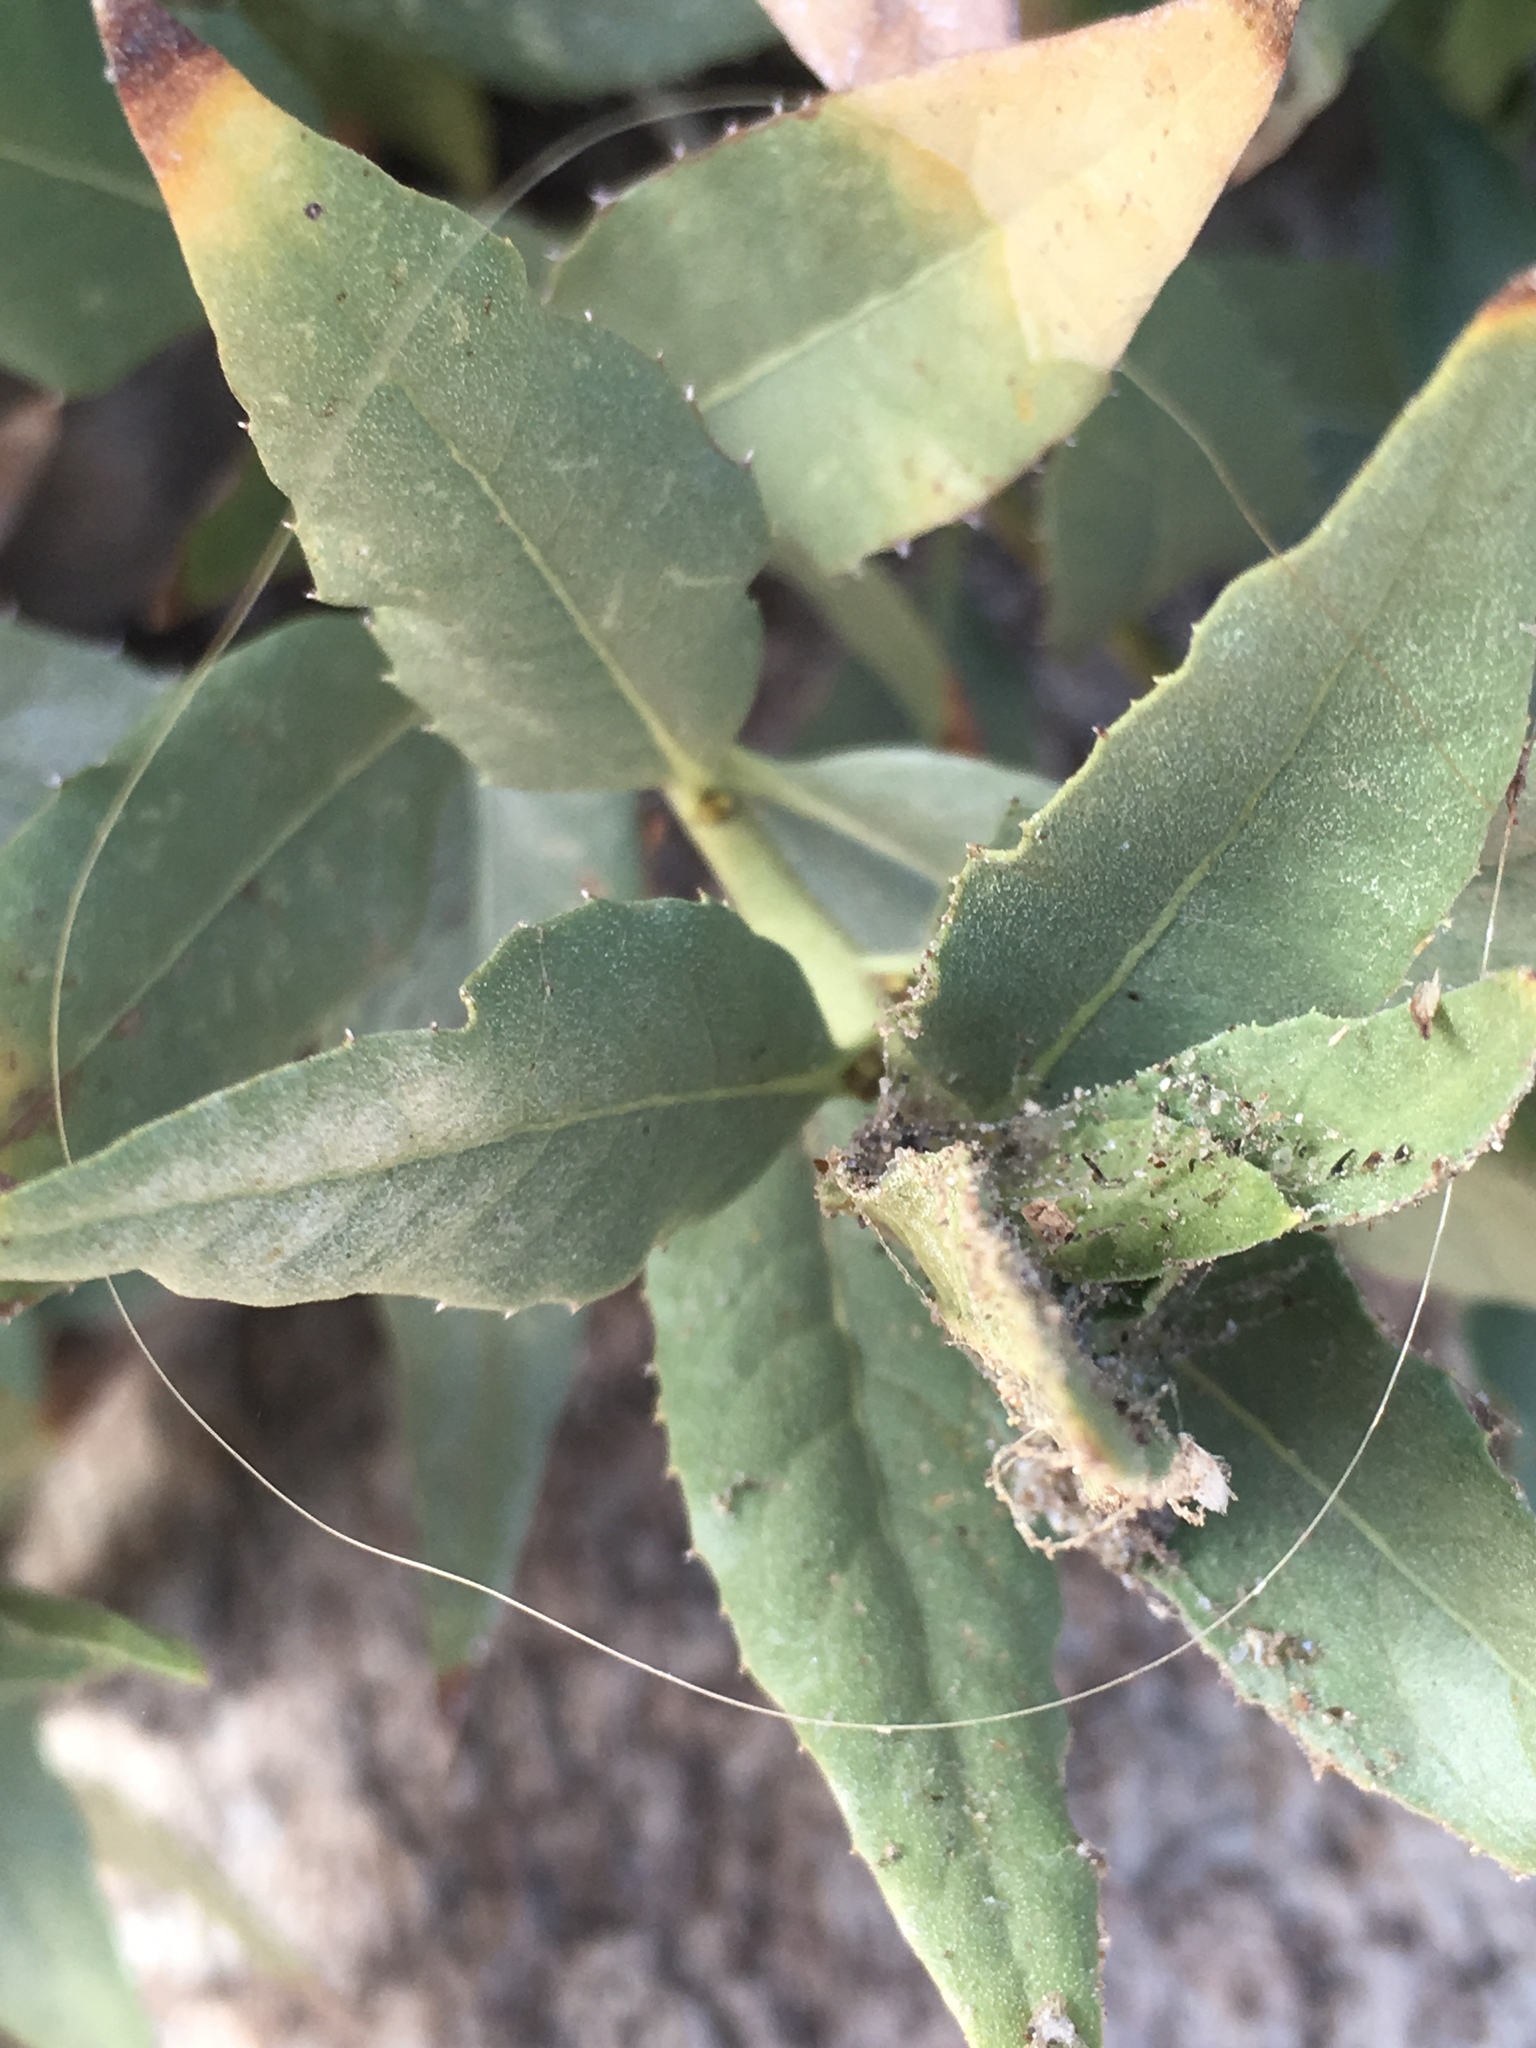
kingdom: Plantae
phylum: Tracheophyta
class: Magnoliopsida
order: Asterales
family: Asteraceae
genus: Trixis
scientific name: Trixis californica
